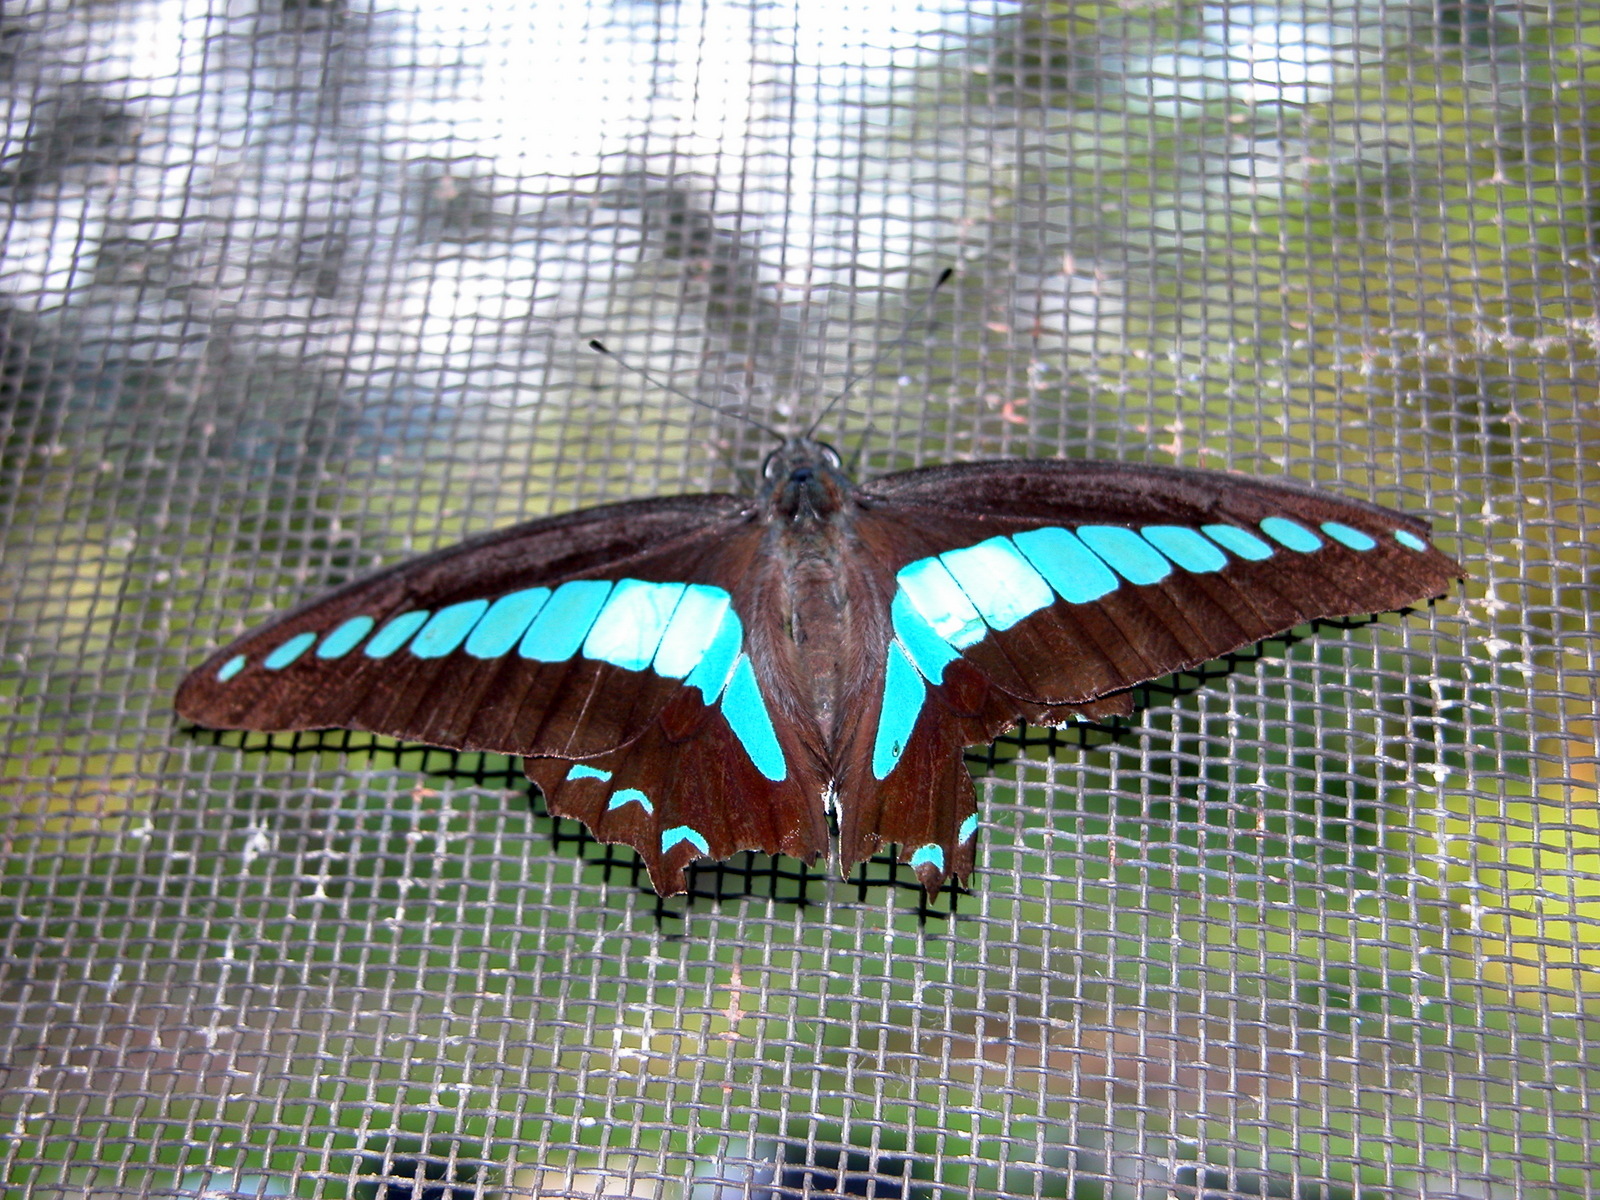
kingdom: Fungi
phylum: Ascomycota
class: Sordariomycetes
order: Microascales
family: Microascaceae
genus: Graphium
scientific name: Graphium sarpedon
